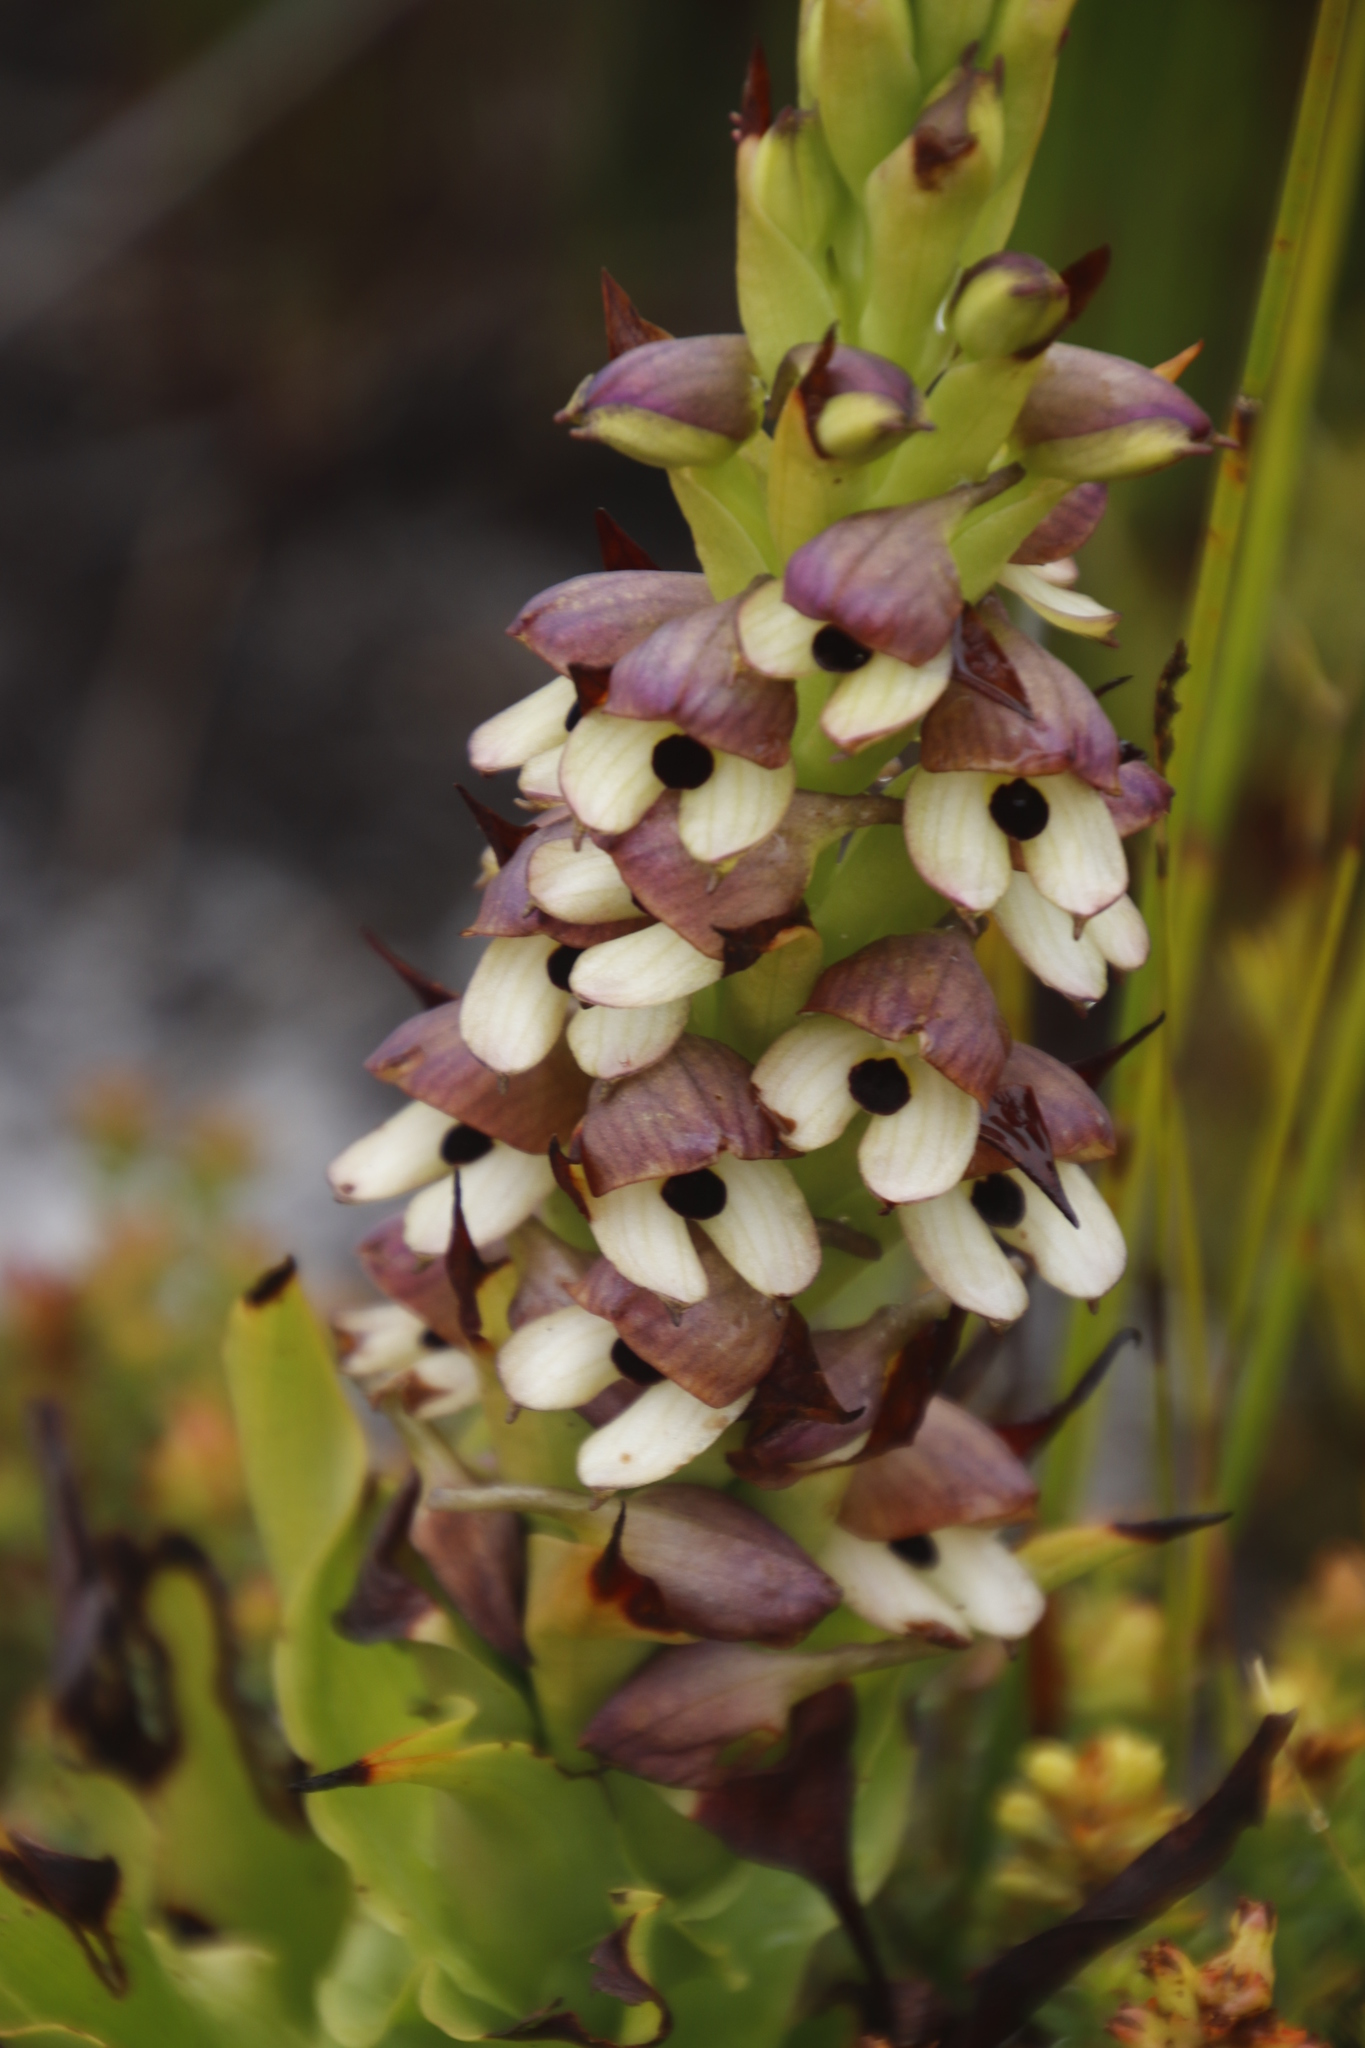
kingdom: Plantae
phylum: Tracheophyta
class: Liliopsida
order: Asparagales
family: Orchidaceae
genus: Disa
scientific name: Disa cornuta
